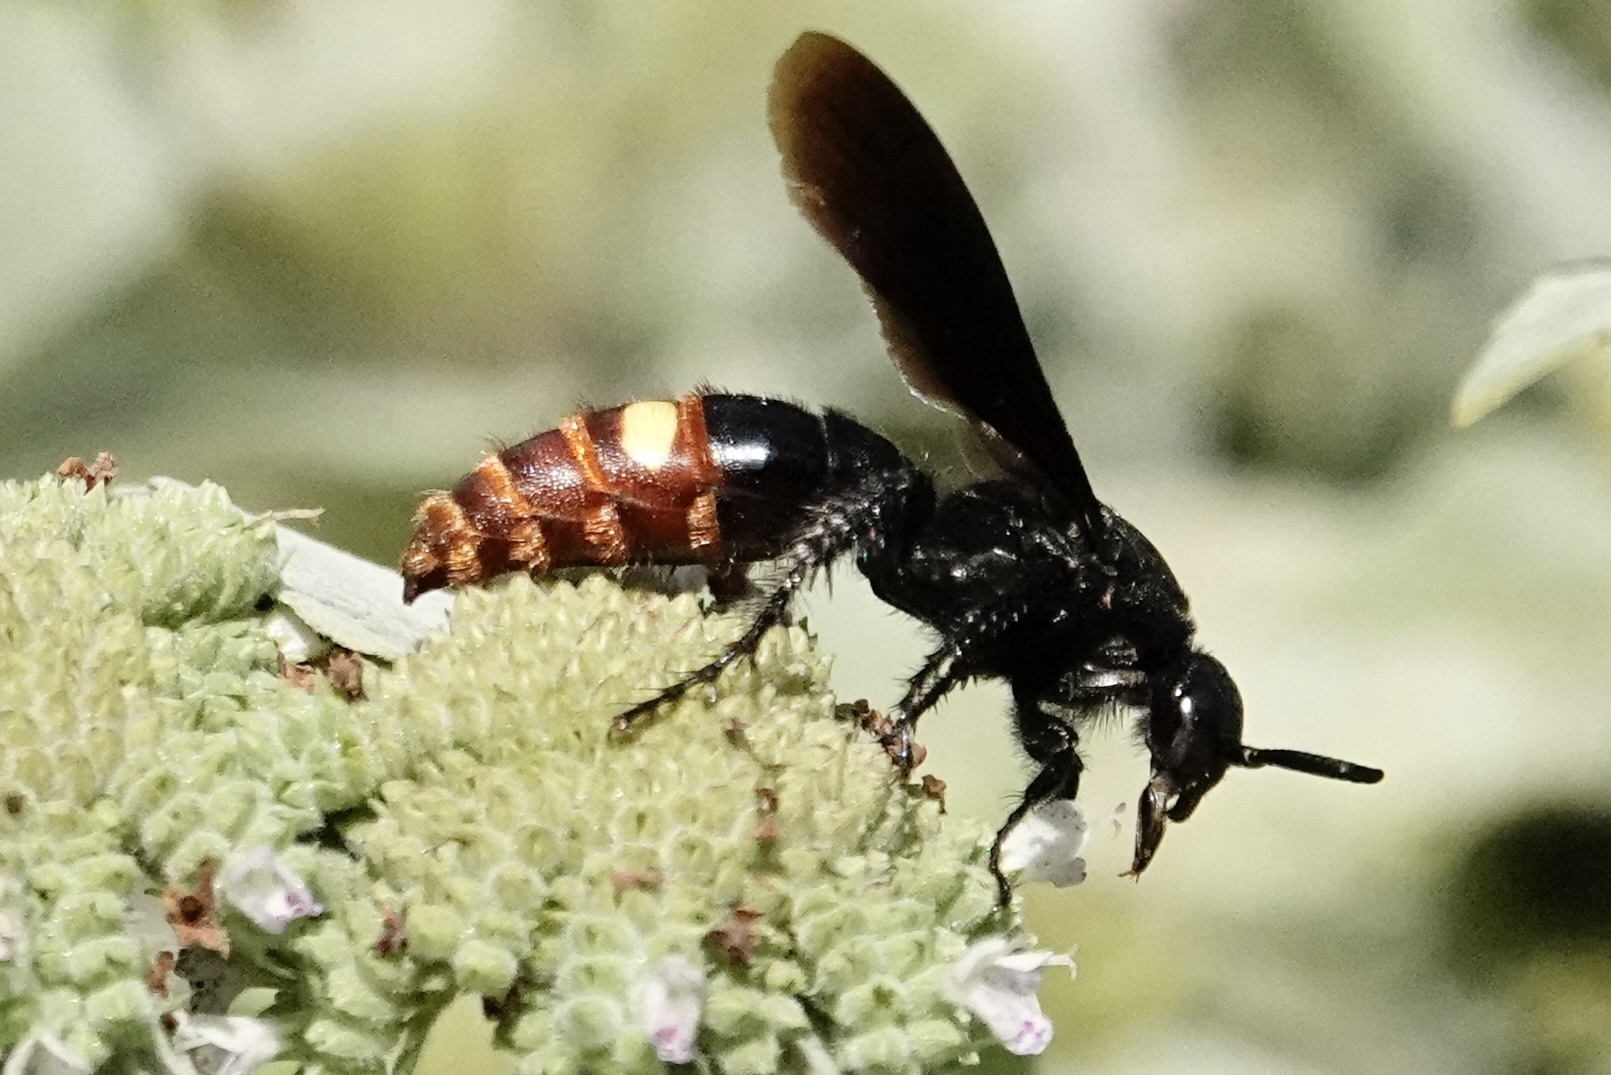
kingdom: Animalia
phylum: Arthropoda
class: Insecta
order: Hymenoptera
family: Scoliidae
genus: Scolia
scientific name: Scolia dubia
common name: Blue-winged scoliid wasp
